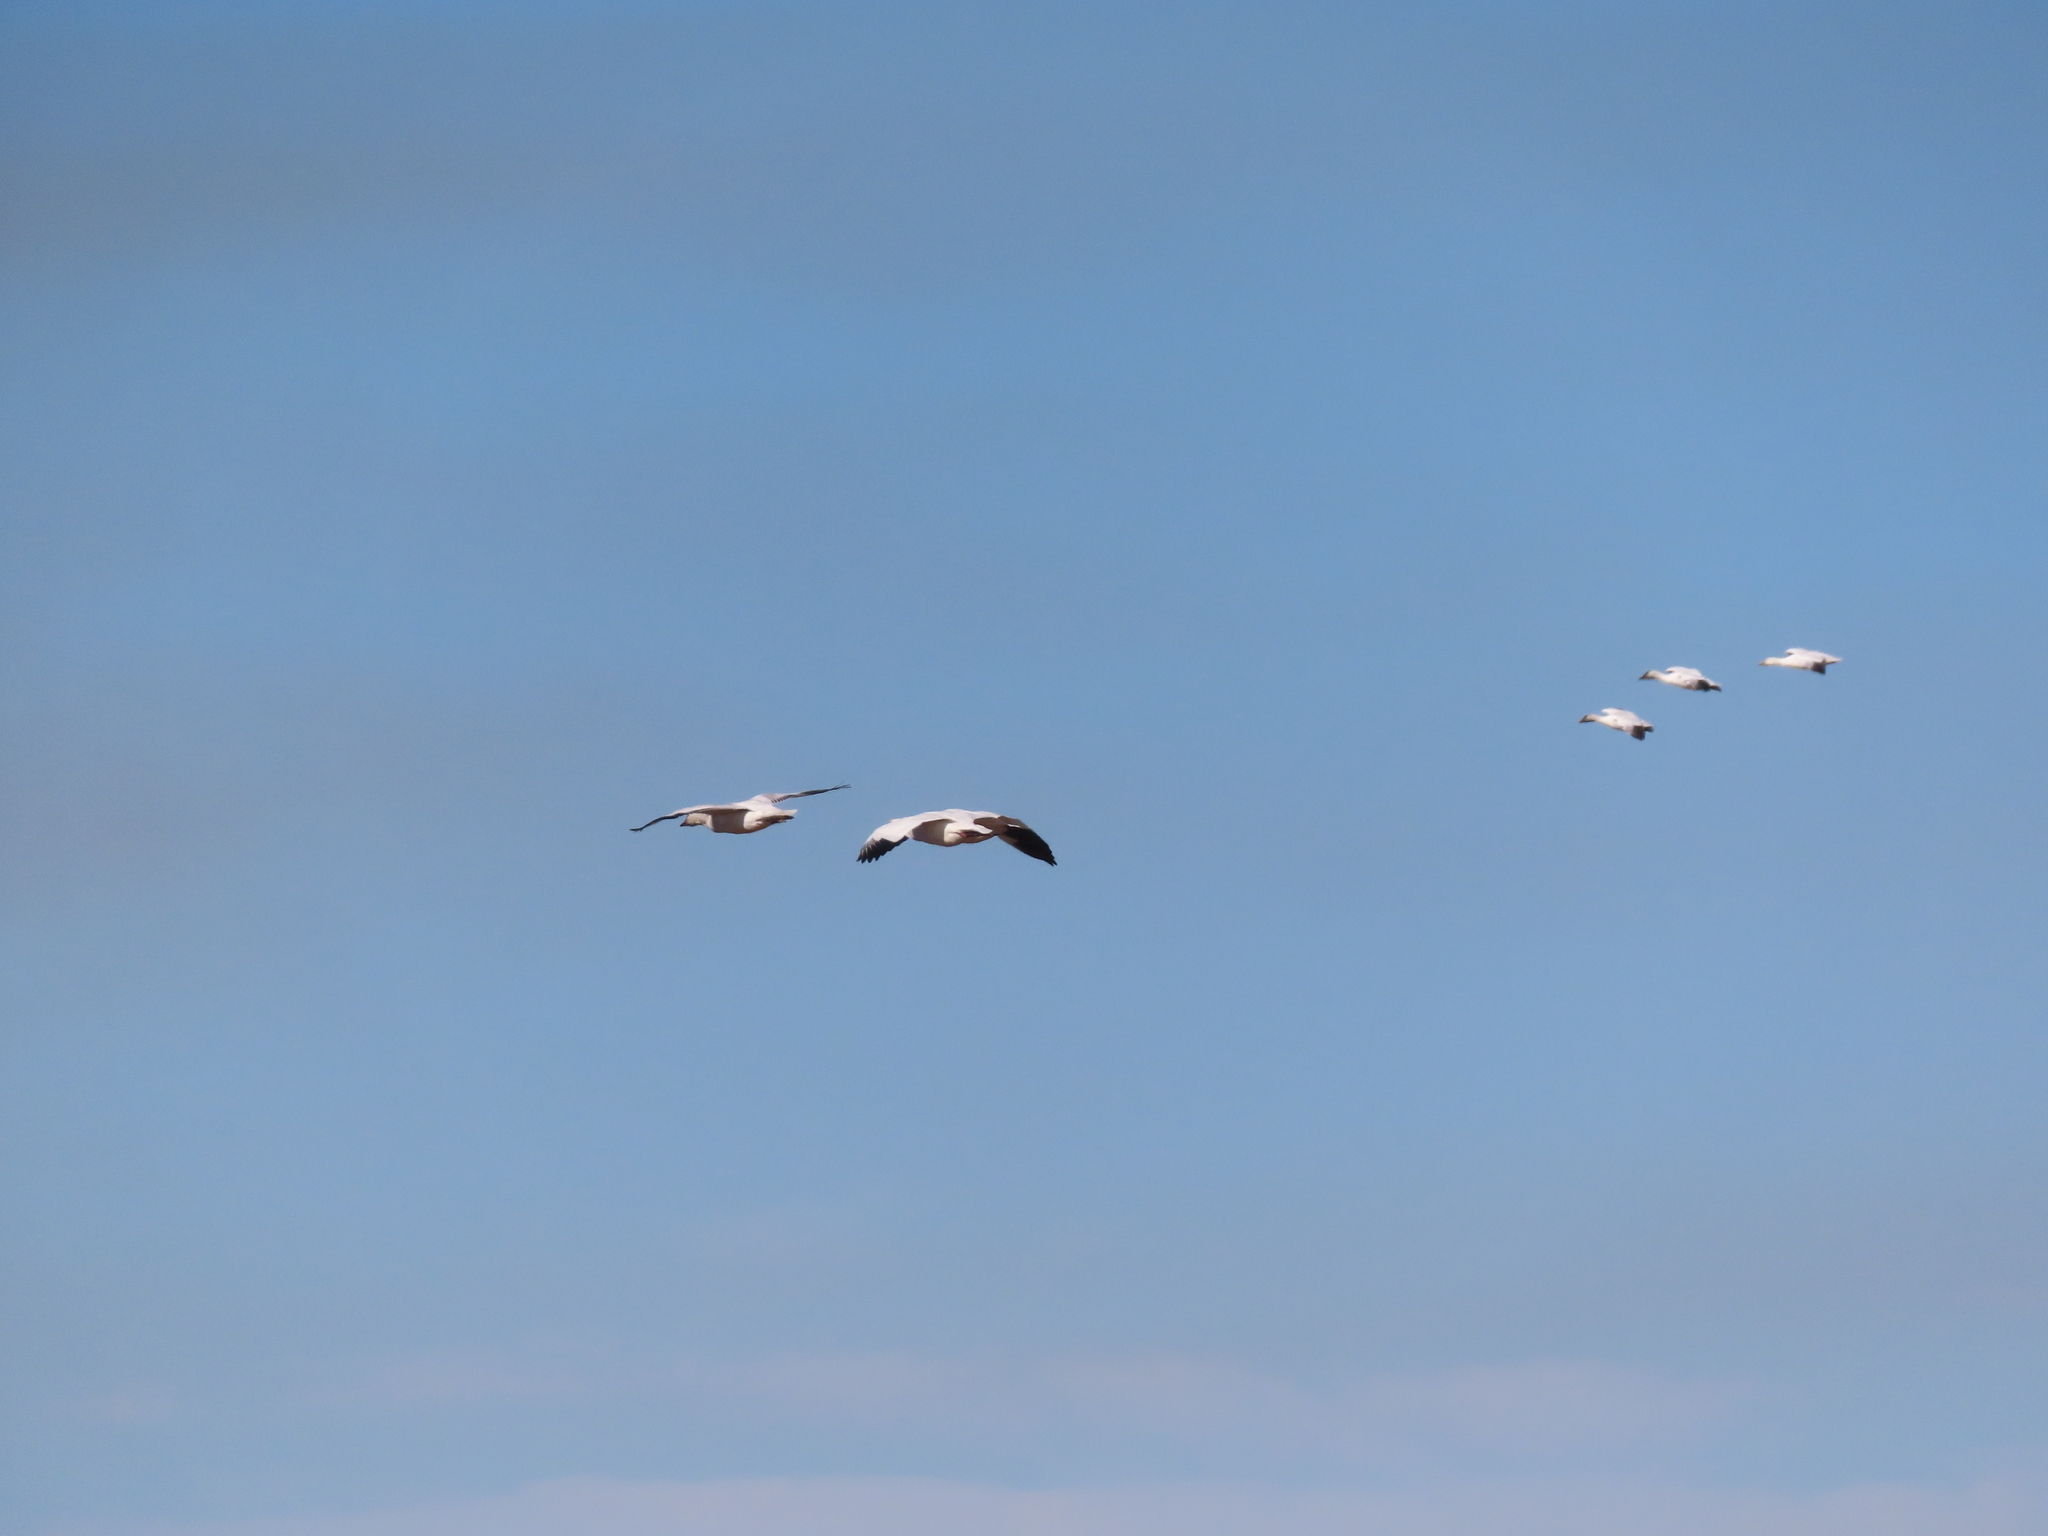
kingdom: Animalia
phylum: Chordata
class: Aves
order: Anseriformes
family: Anatidae
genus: Anser
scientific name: Anser caerulescens
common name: Snow goose
